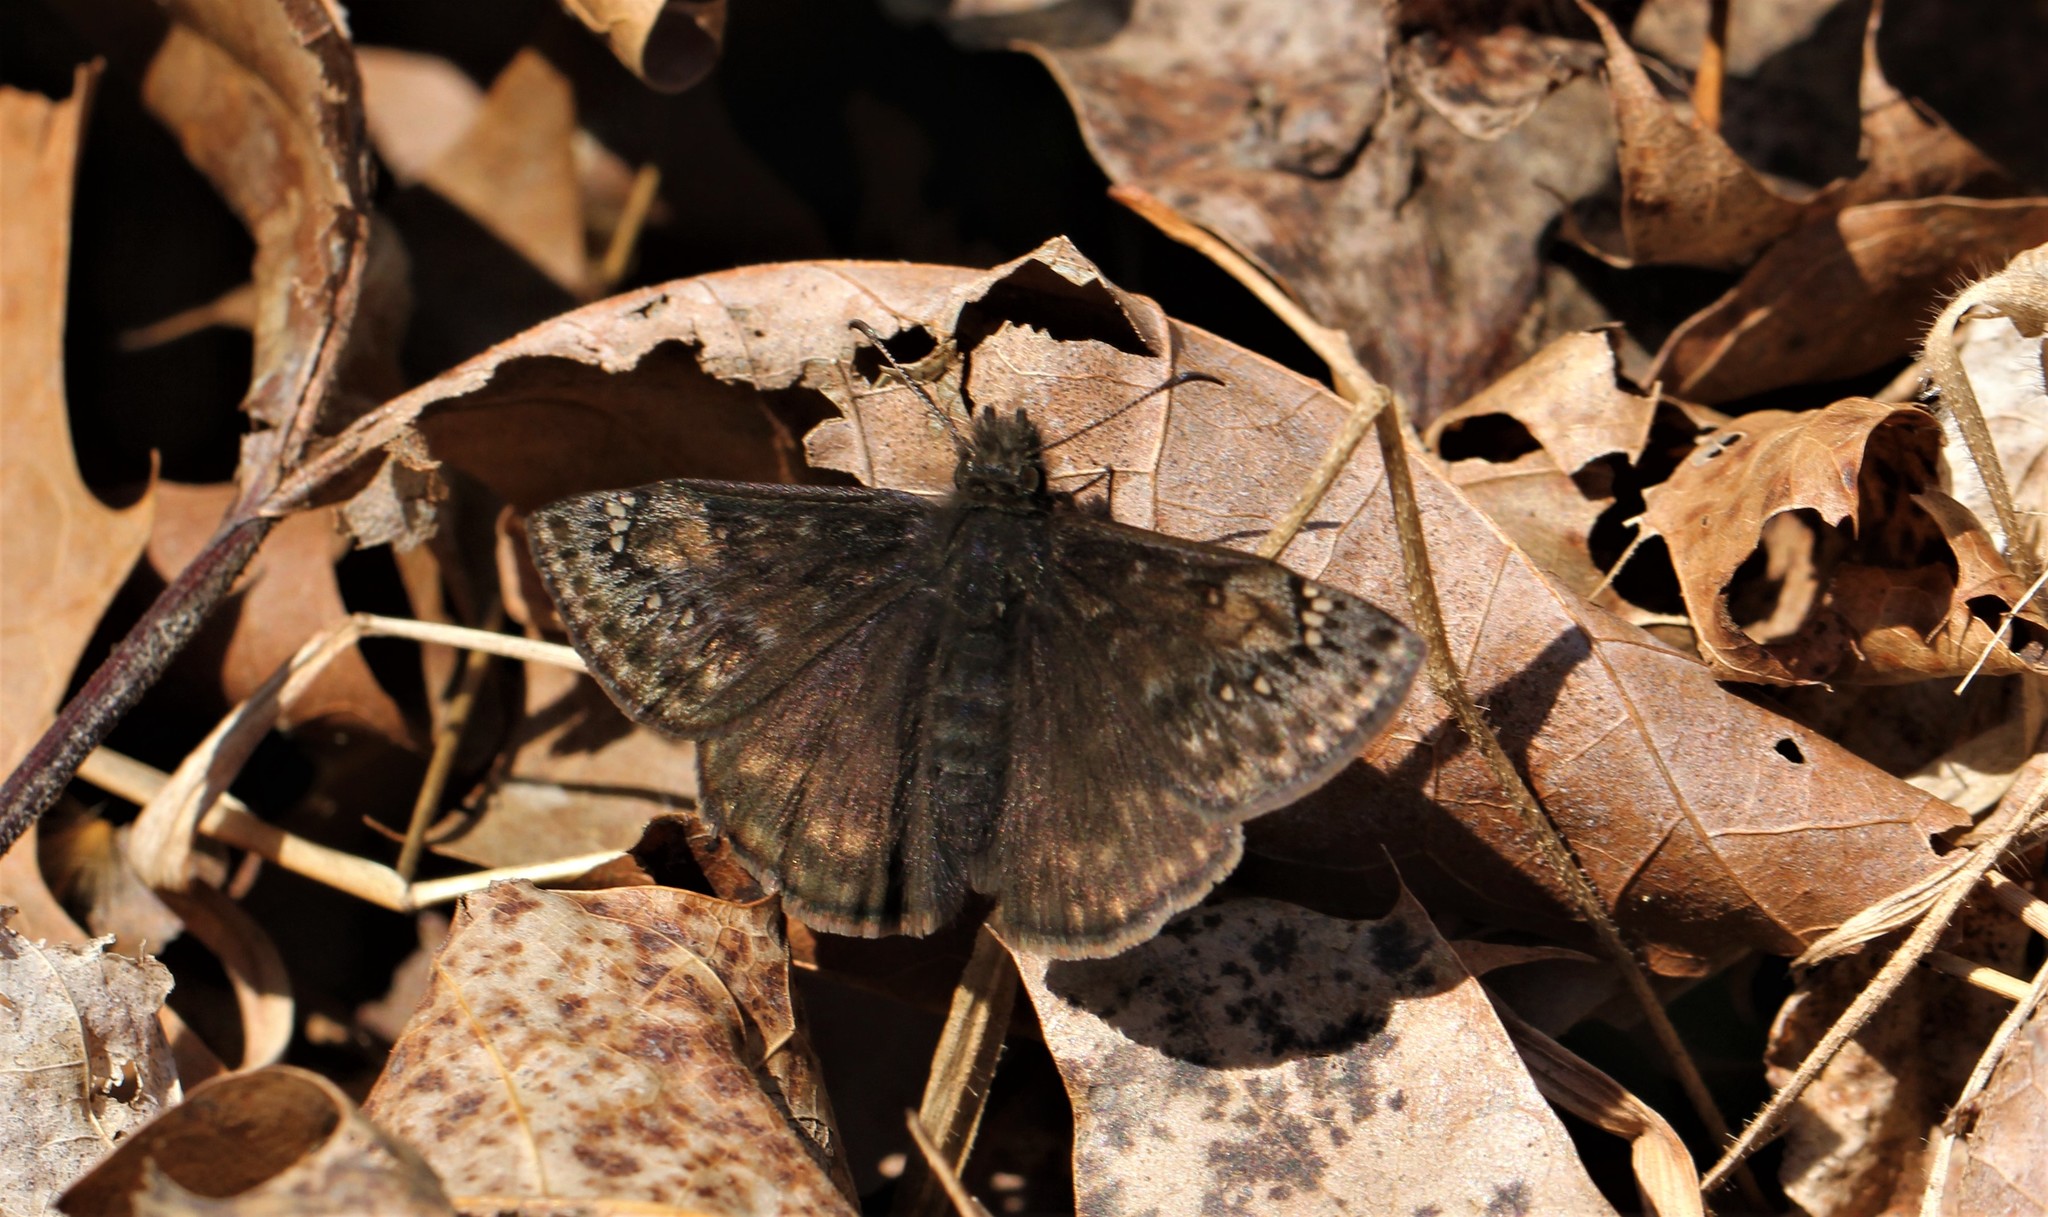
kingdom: Animalia
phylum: Arthropoda
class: Insecta
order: Lepidoptera
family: Hesperiidae
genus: Erynnis
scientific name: Erynnis juvenalis
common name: Juvenal's duskywing
